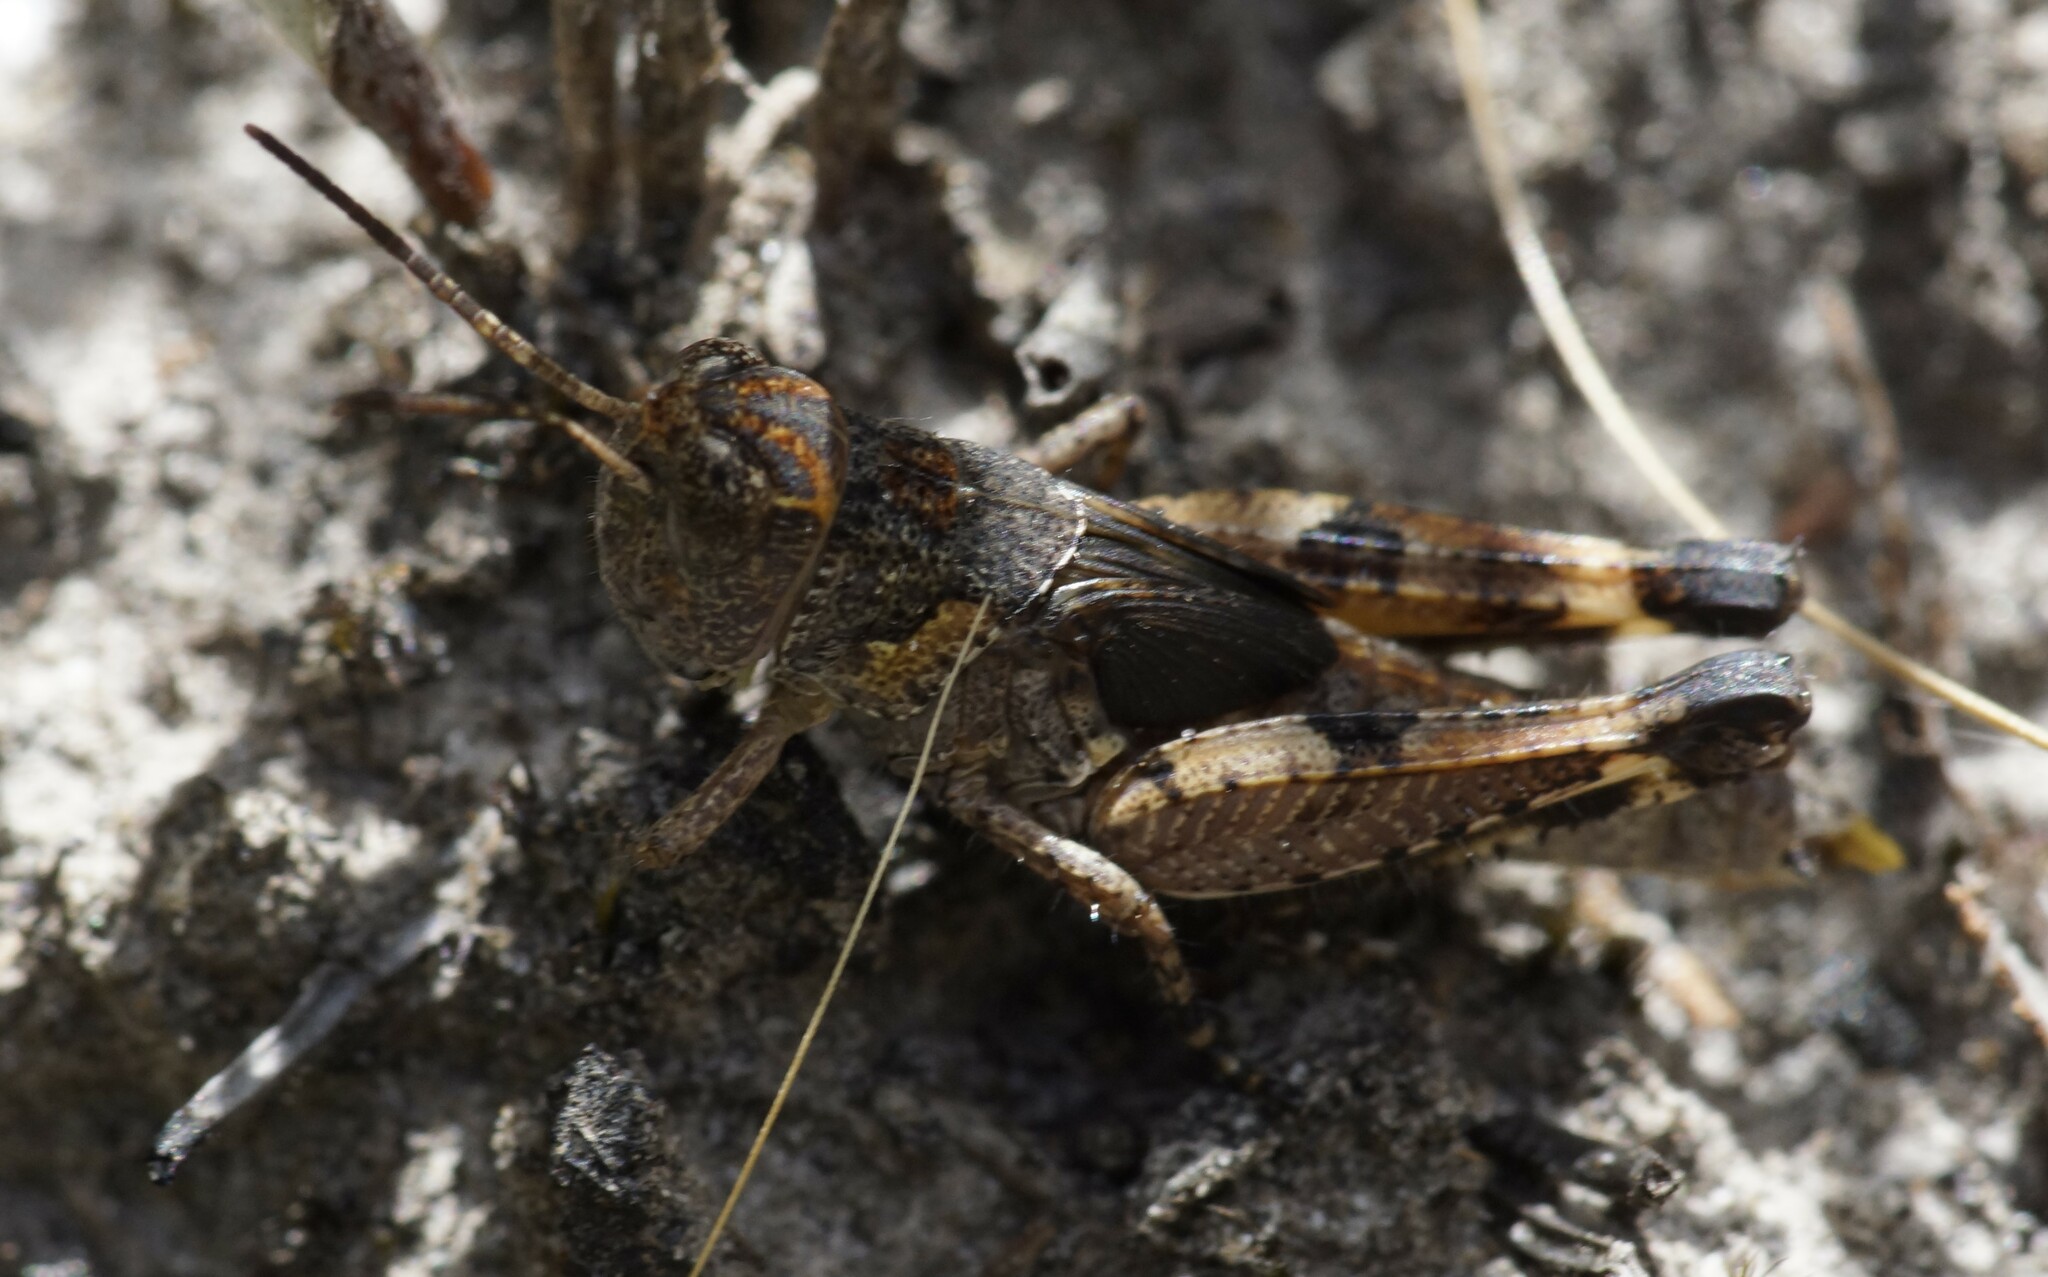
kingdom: Animalia
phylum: Arthropoda
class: Insecta
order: Orthoptera
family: Acrididae
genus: Exarna
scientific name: Exarna includens
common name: Red-legged exarna
